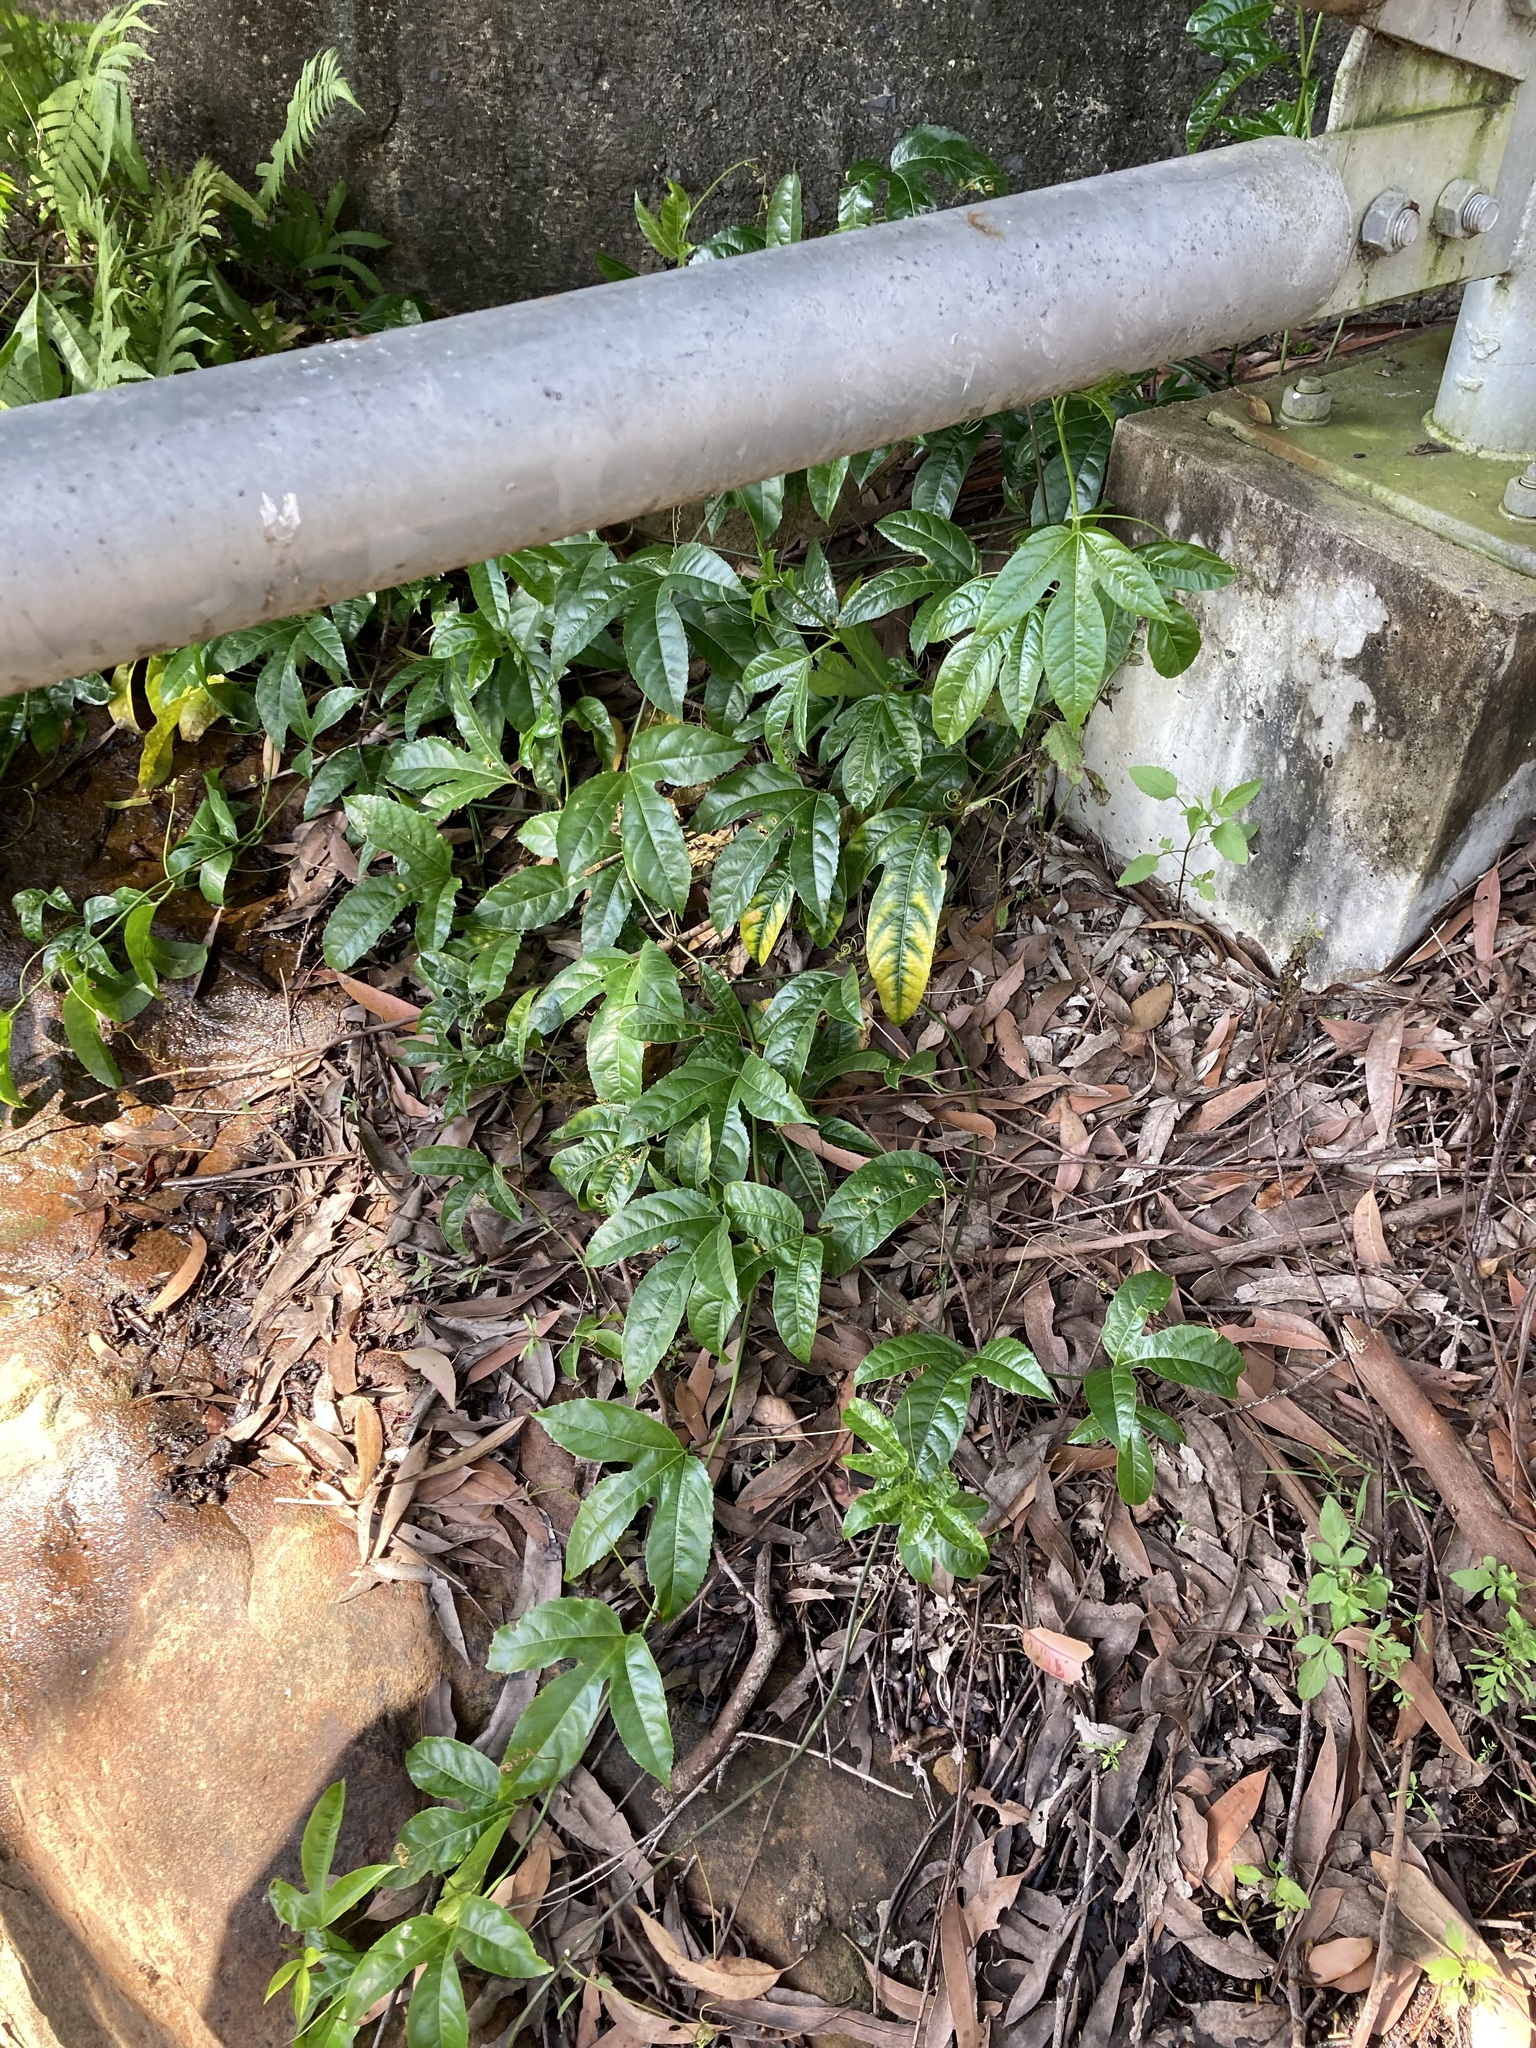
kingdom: Plantae
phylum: Tracheophyta
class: Magnoliopsida
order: Malpighiales
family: Passifloraceae
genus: Passiflora
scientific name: Passiflora edulis
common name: Purple granadilla
